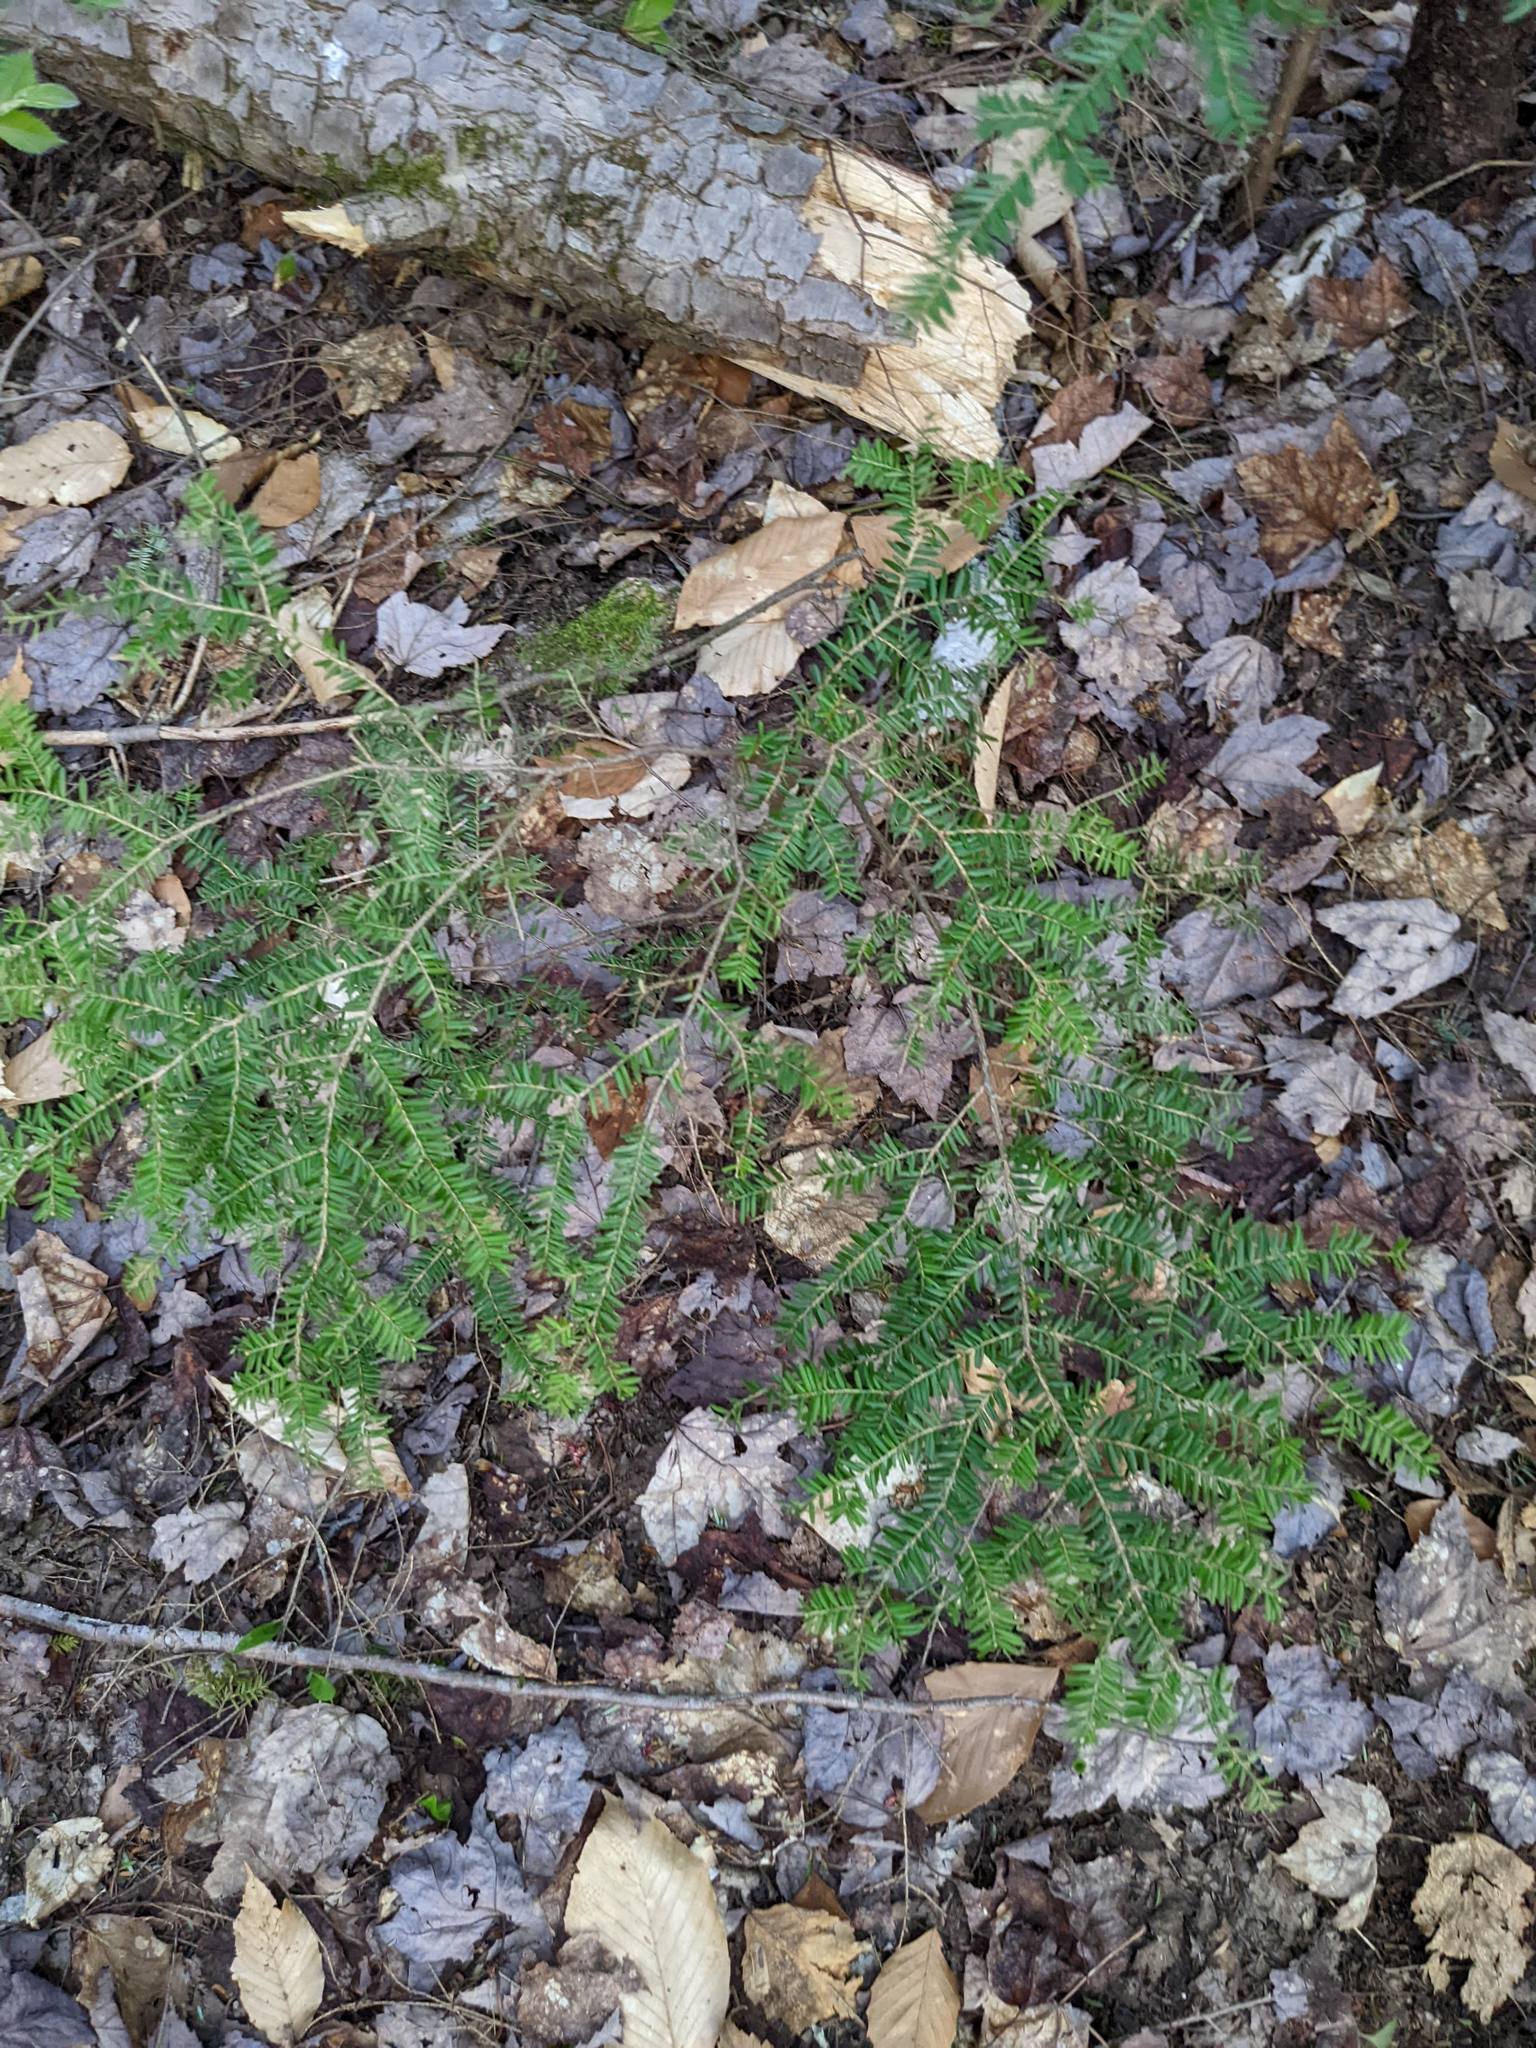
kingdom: Plantae
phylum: Tracheophyta
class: Pinopsida
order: Pinales
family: Pinaceae
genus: Tsuga
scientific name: Tsuga canadensis
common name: Eastern hemlock
